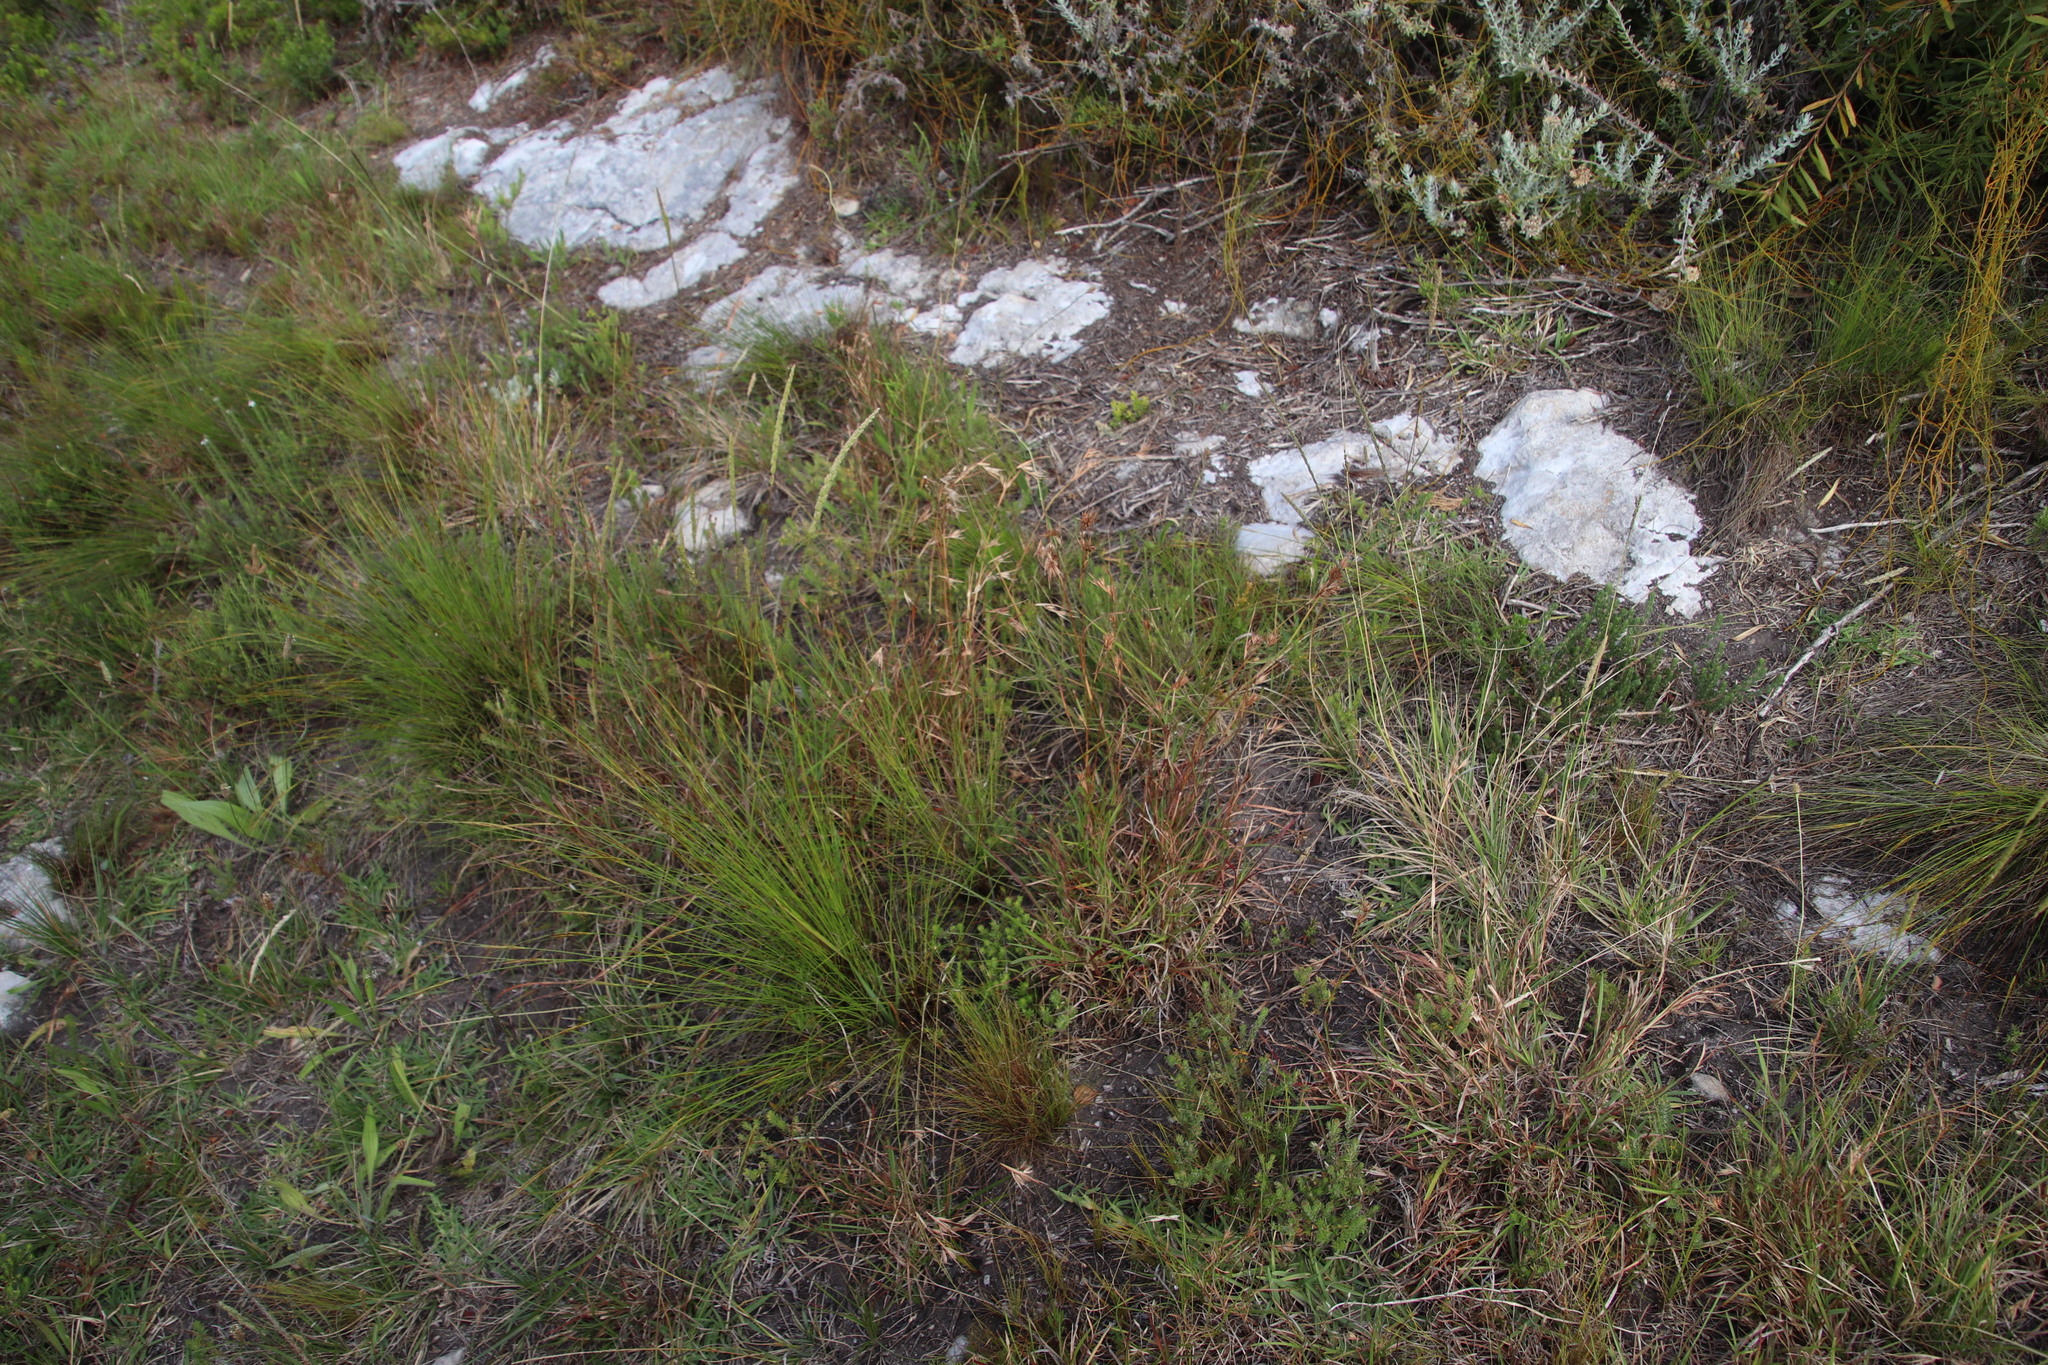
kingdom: Plantae
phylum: Tracheophyta
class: Liliopsida
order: Poales
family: Poaceae
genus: Themeda
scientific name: Themeda triandra
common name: Kangaroo grass
